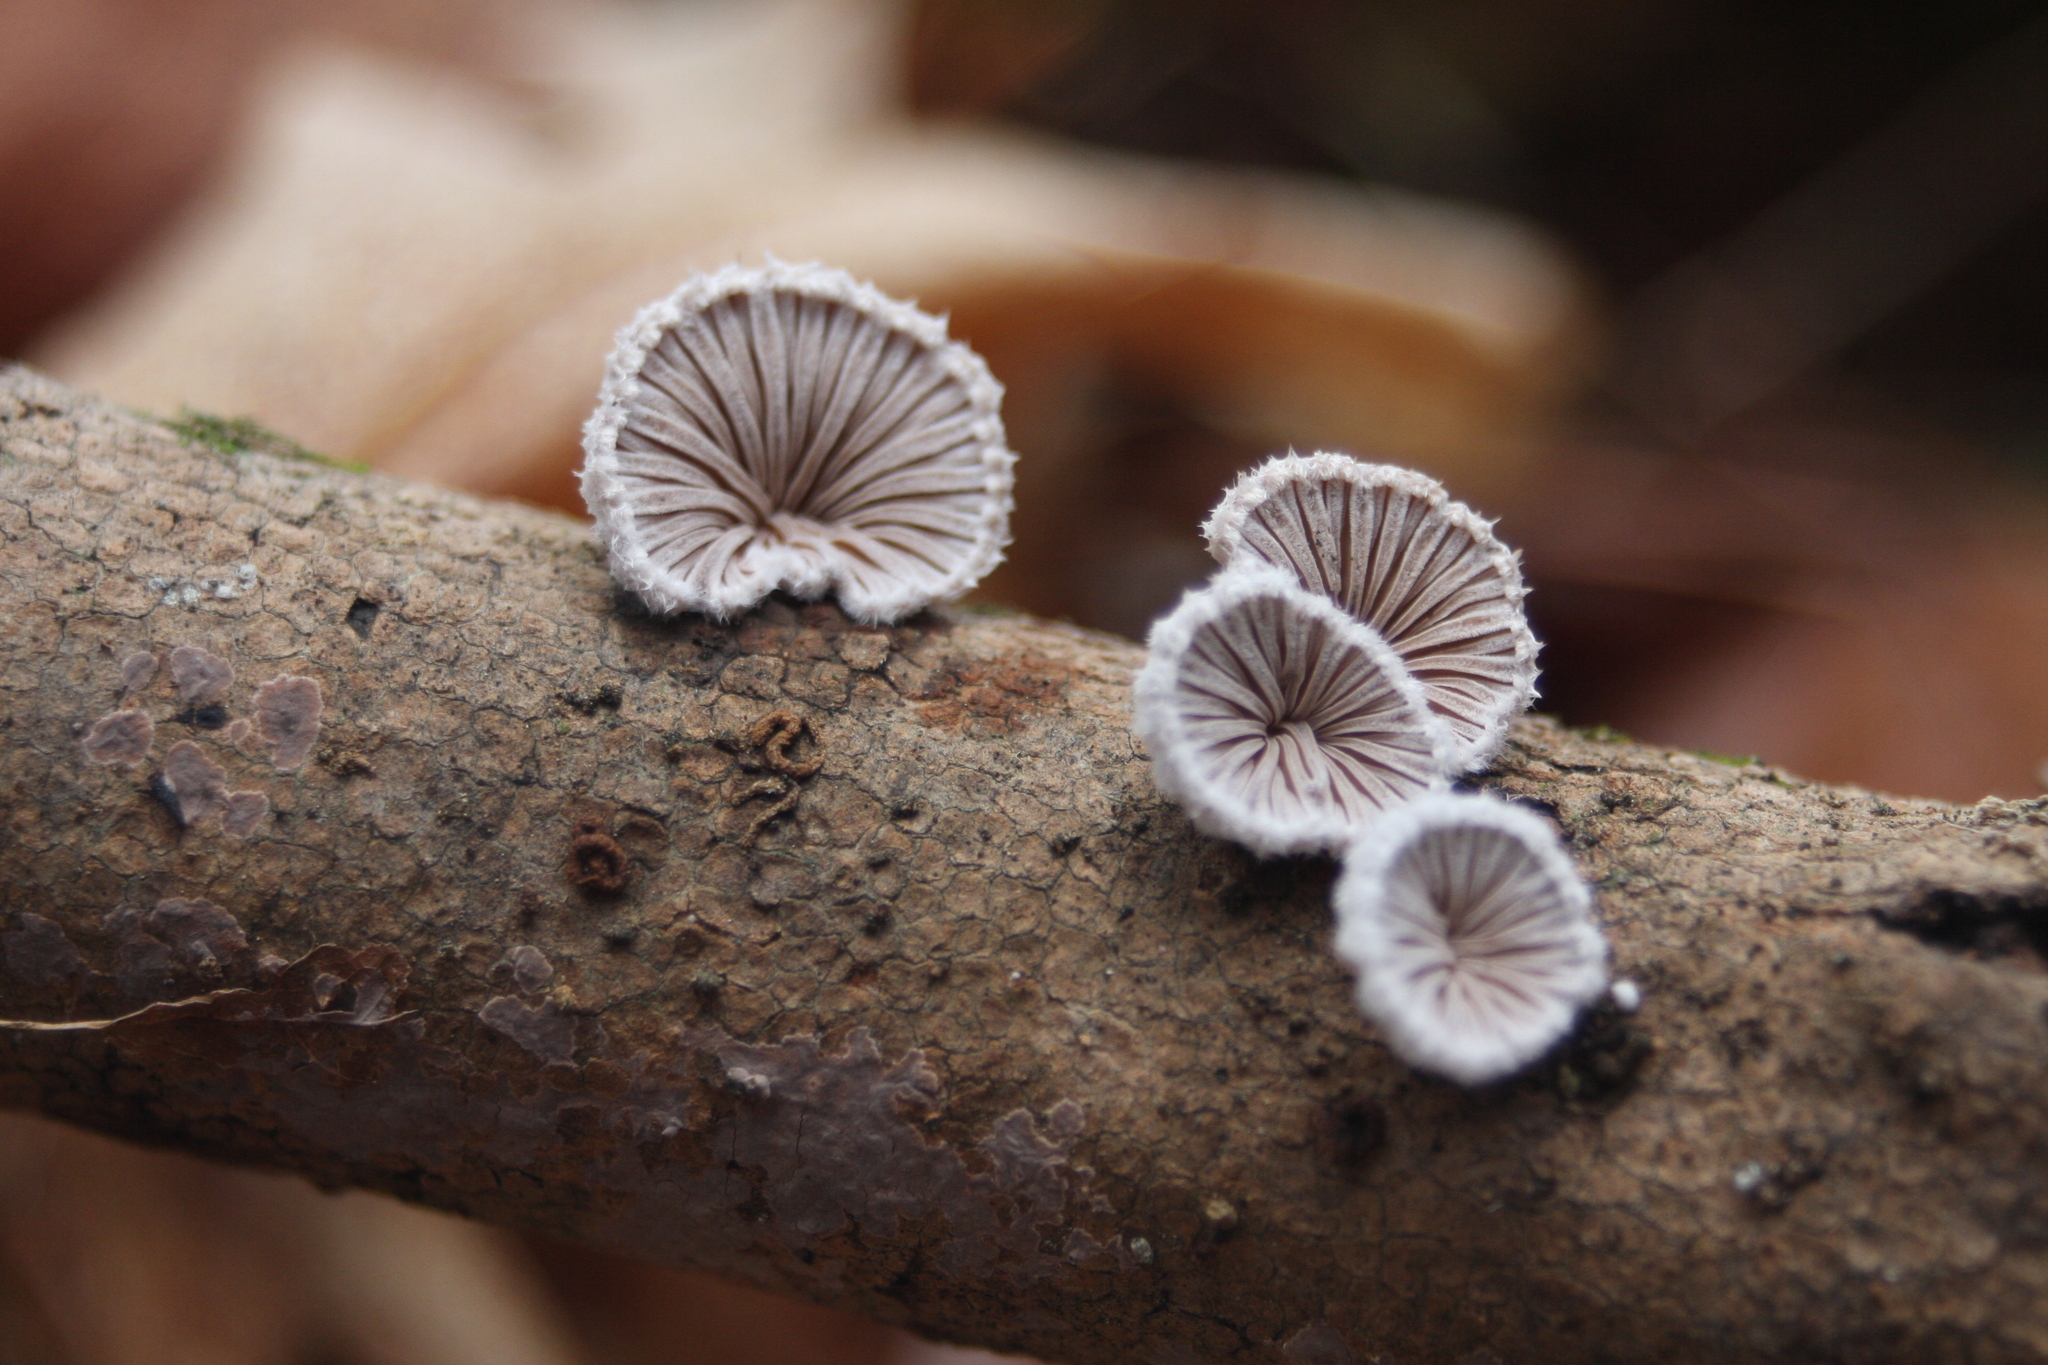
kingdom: Fungi
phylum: Basidiomycota
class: Agaricomycetes
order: Agaricales
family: Schizophyllaceae
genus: Schizophyllum
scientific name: Schizophyllum commune
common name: Common porecrust
